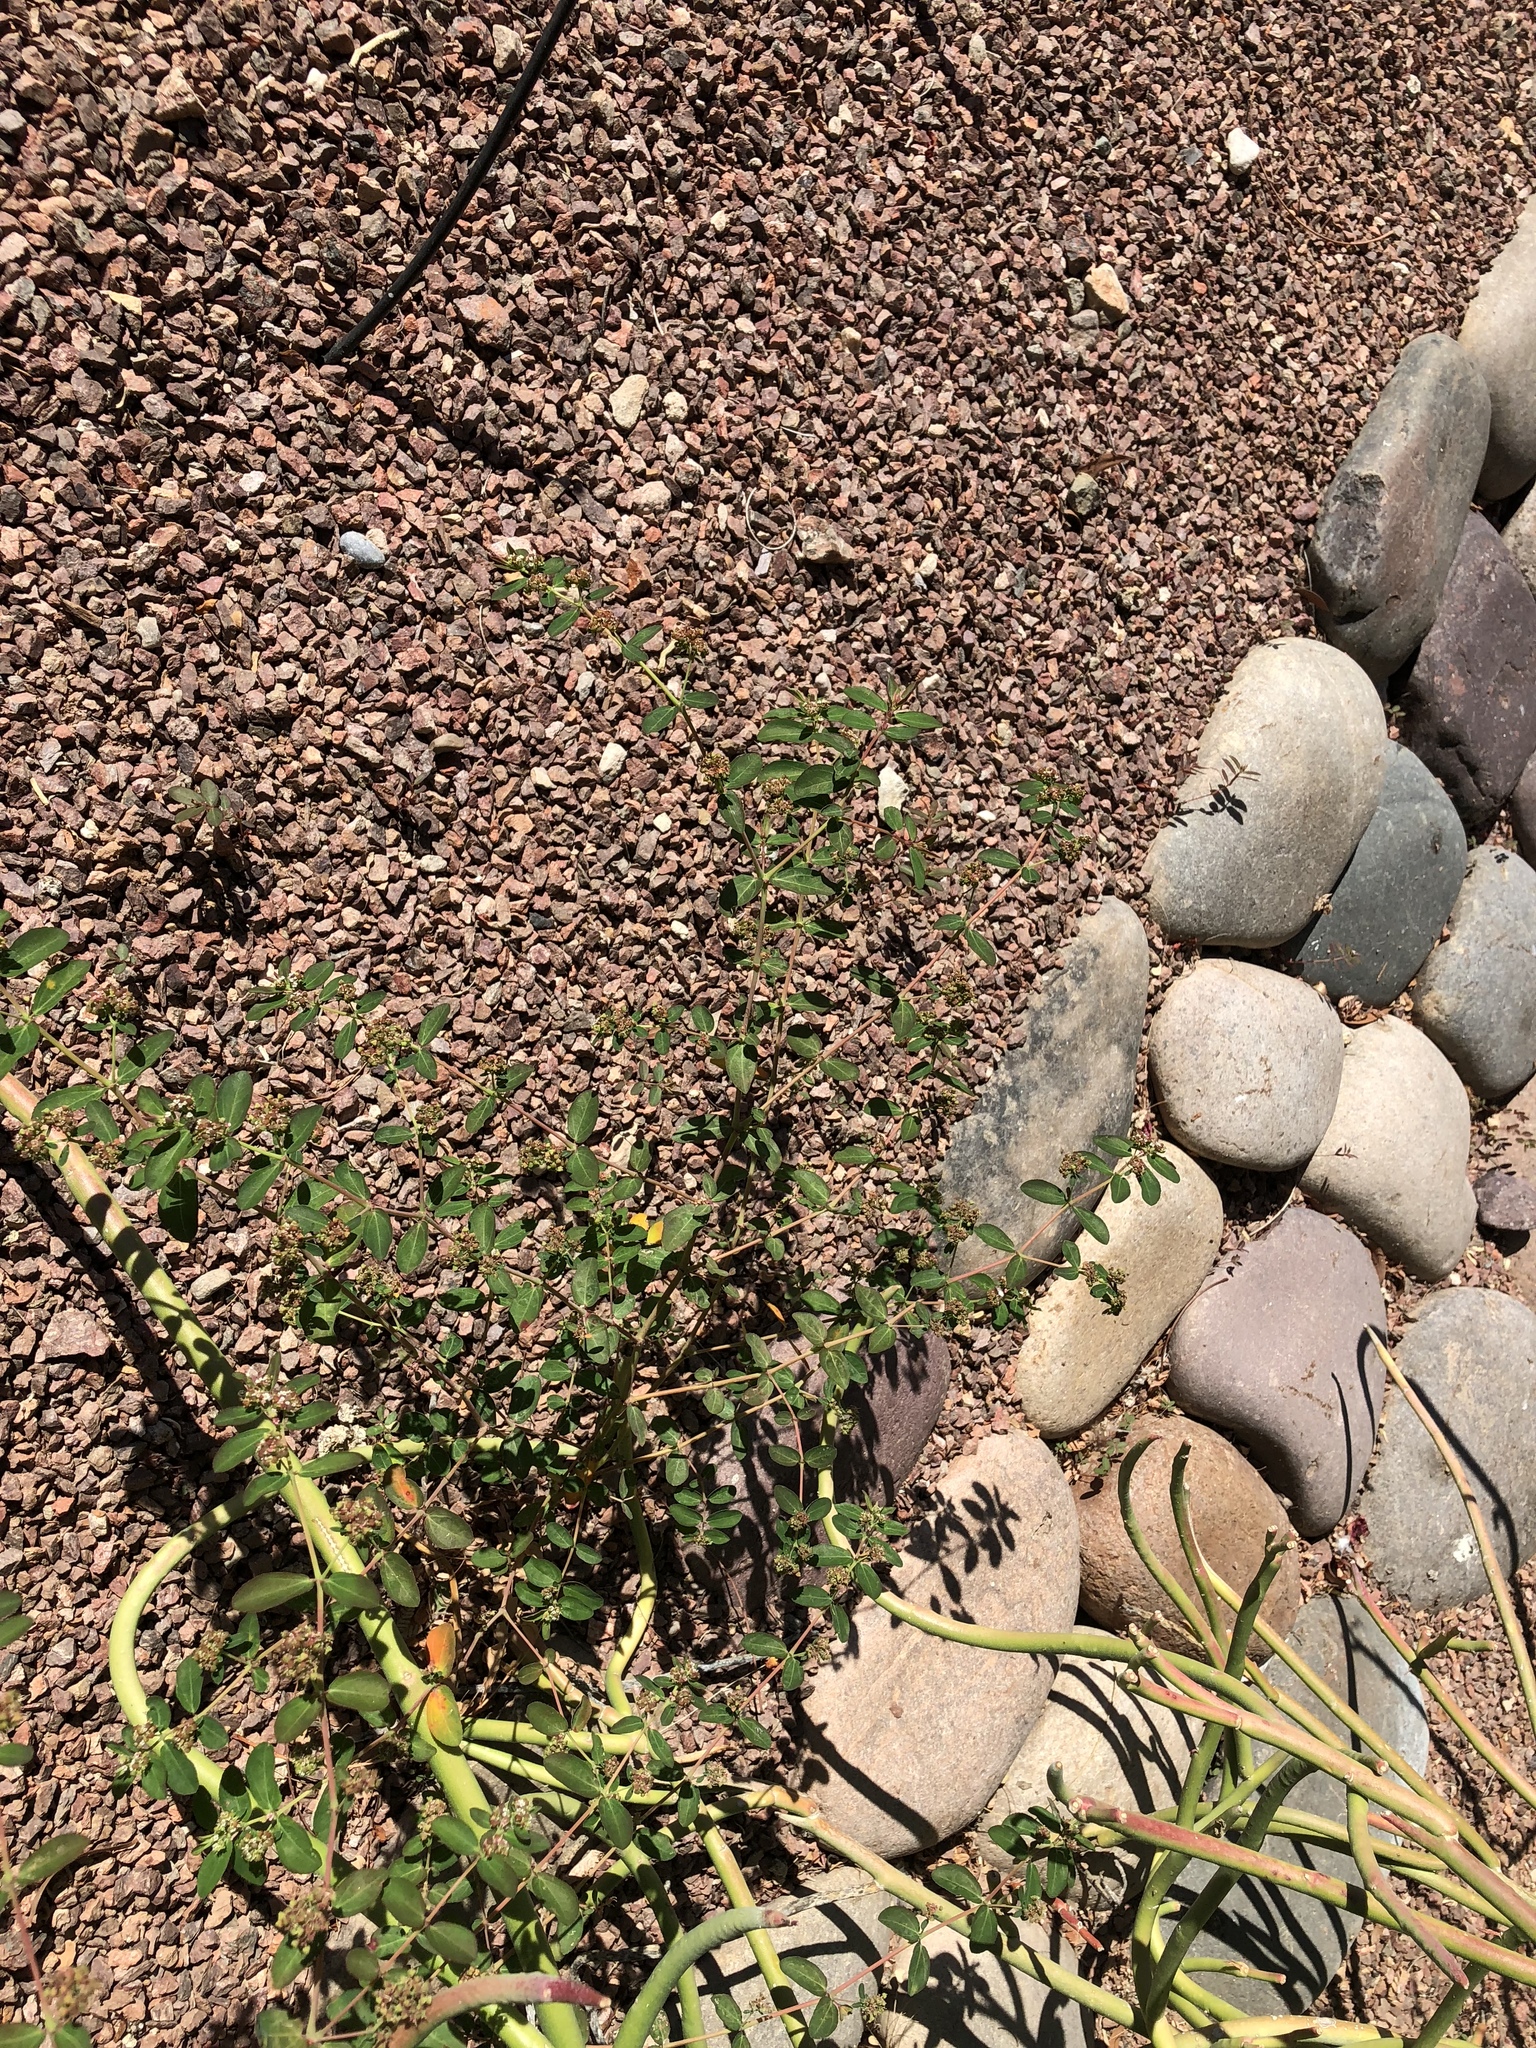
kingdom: Plantae
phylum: Tracheophyta
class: Magnoliopsida
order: Malpighiales
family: Euphorbiaceae
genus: Euphorbia
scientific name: Euphorbia hypericifolia
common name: Graceful sandmat
